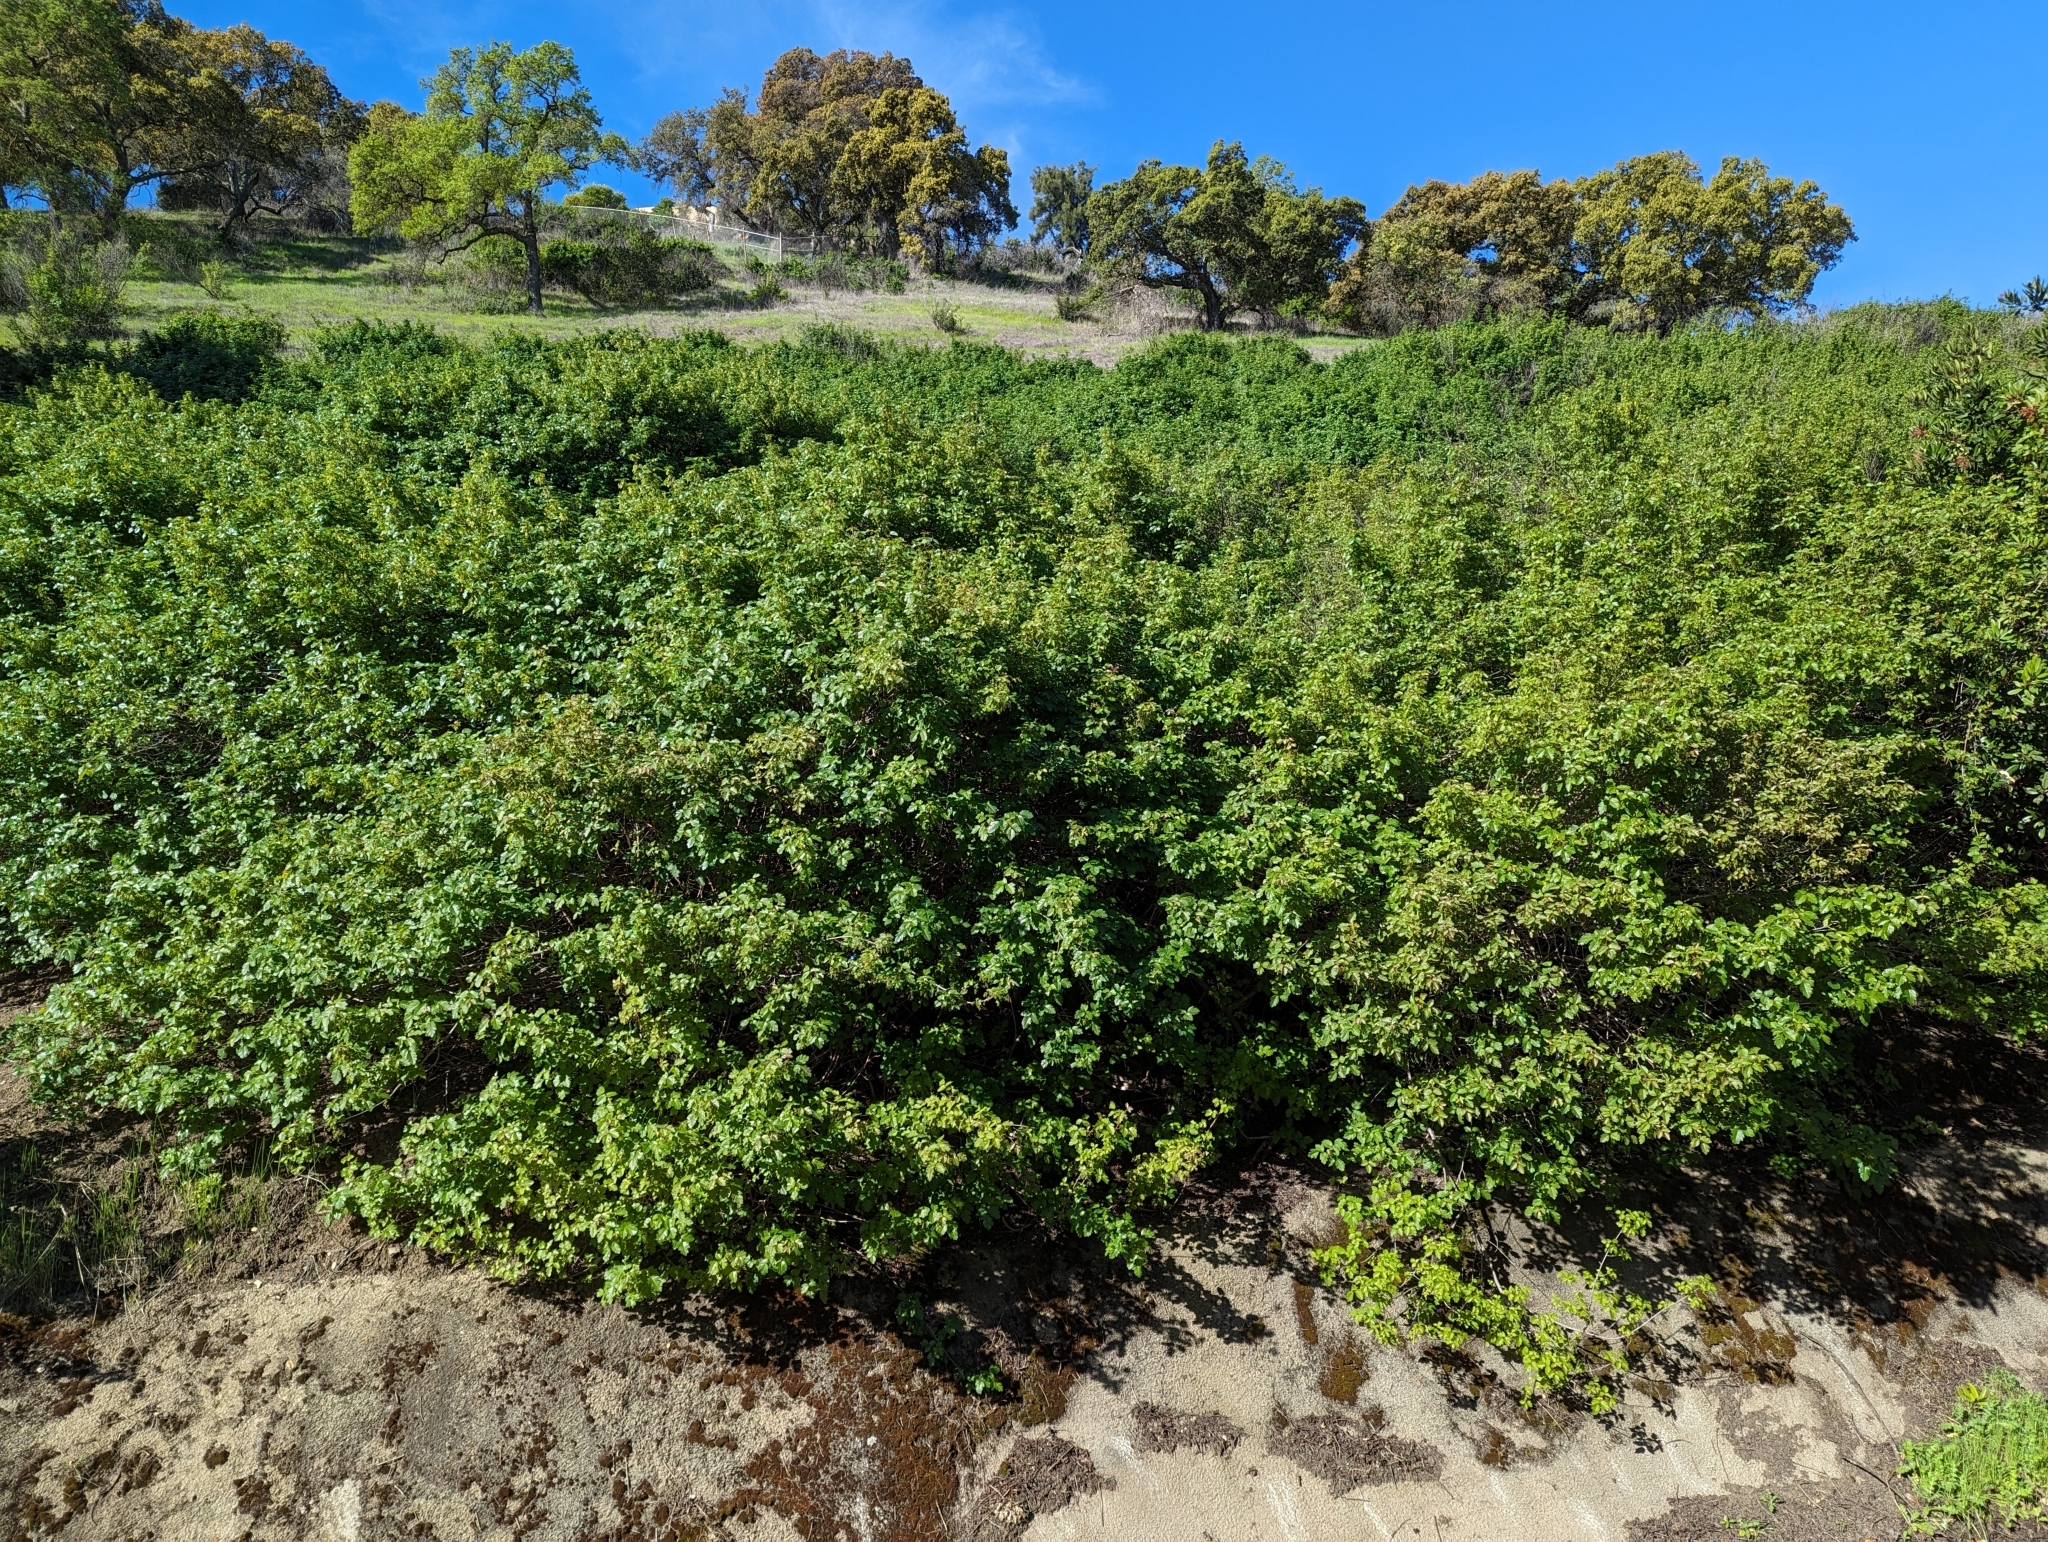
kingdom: Plantae
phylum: Tracheophyta
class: Magnoliopsida
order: Sapindales
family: Anacardiaceae
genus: Toxicodendron
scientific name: Toxicodendron diversilobum
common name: Pacific poison-oak
